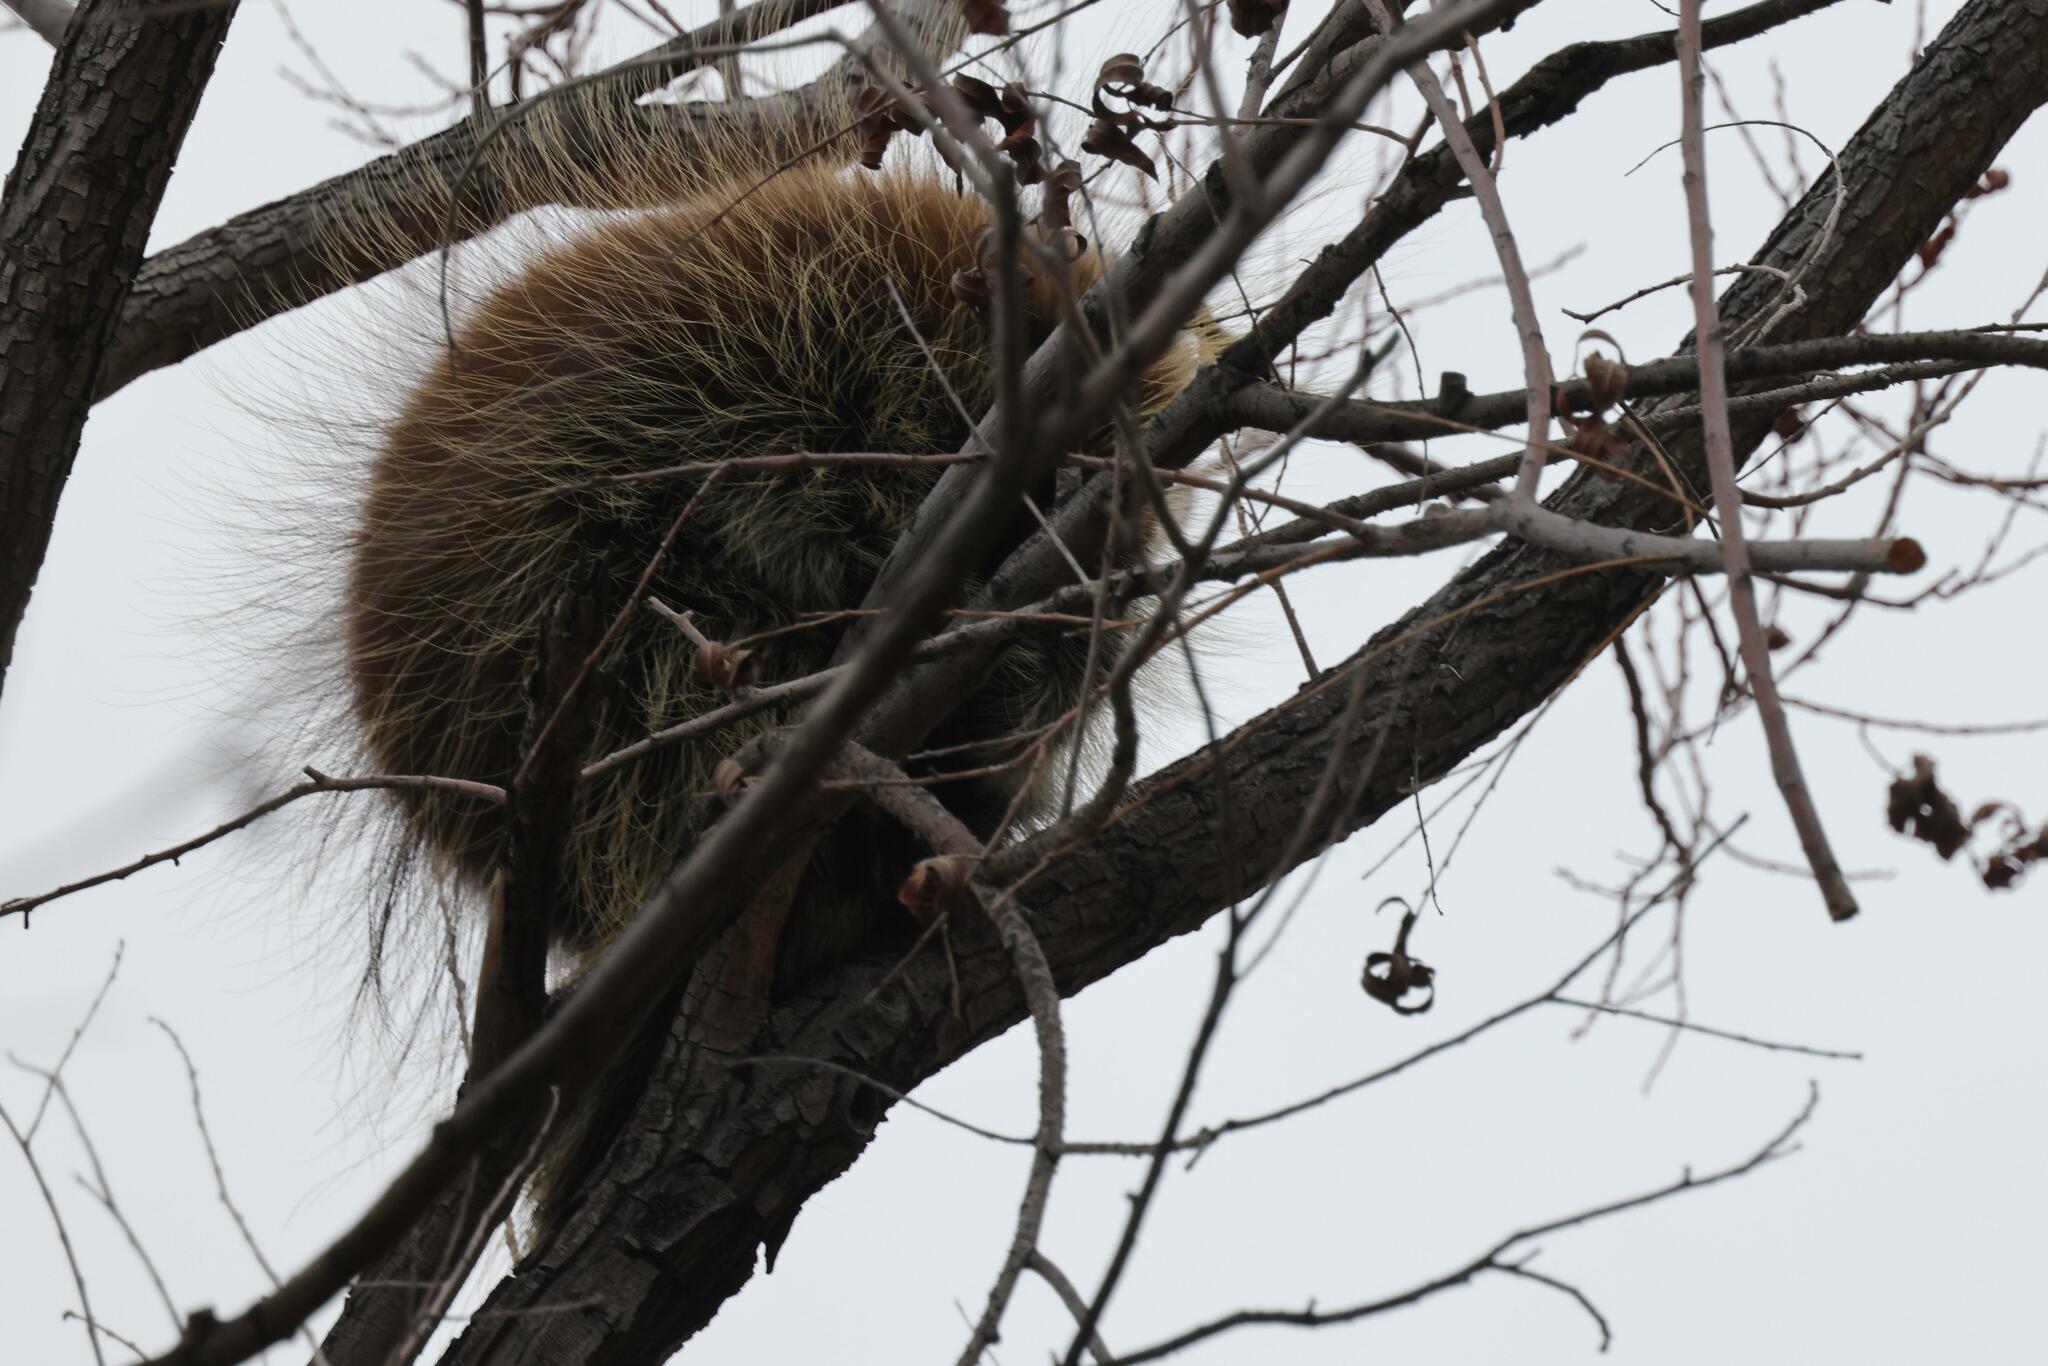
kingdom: Animalia
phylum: Chordata
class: Mammalia
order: Rodentia
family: Erethizontidae
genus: Erethizon
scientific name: Erethizon dorsatus
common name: North american porcupine
